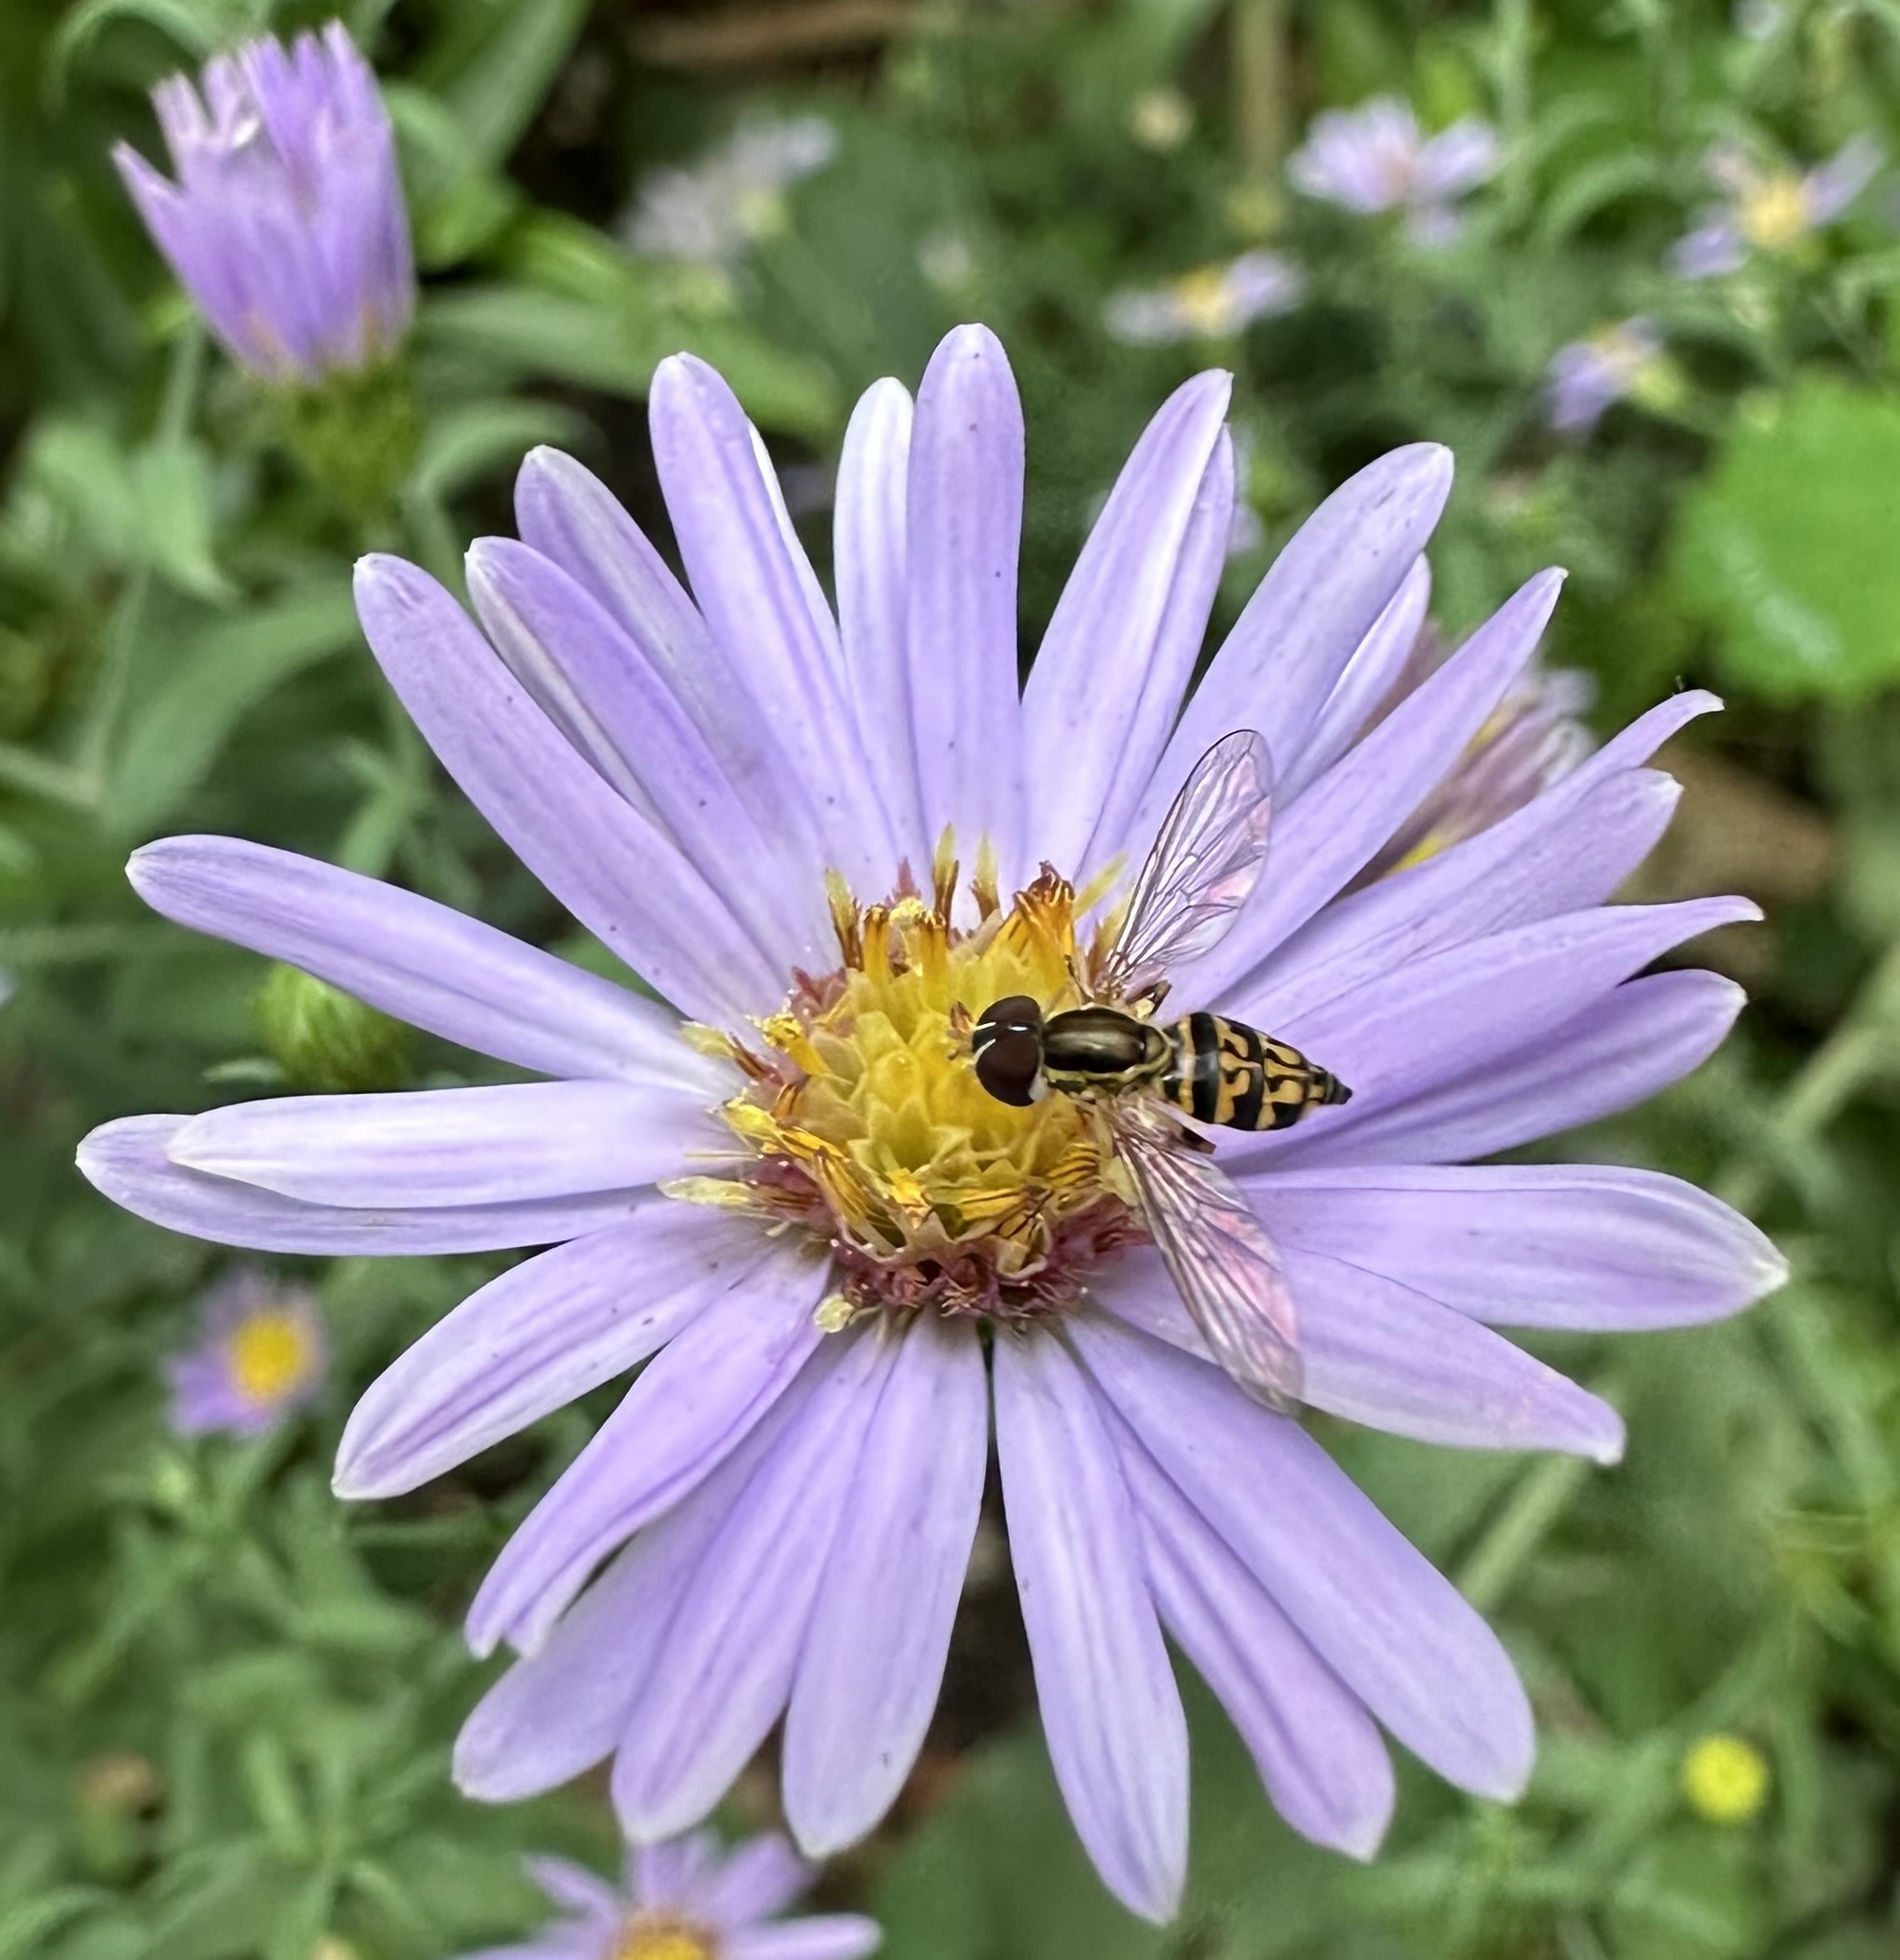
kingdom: Animalia
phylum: Arthropoda
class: Insecta
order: Diptera
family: Syrphidae
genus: Toxomerus
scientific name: Toxomerus geminatus
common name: Eastern calligrapher
